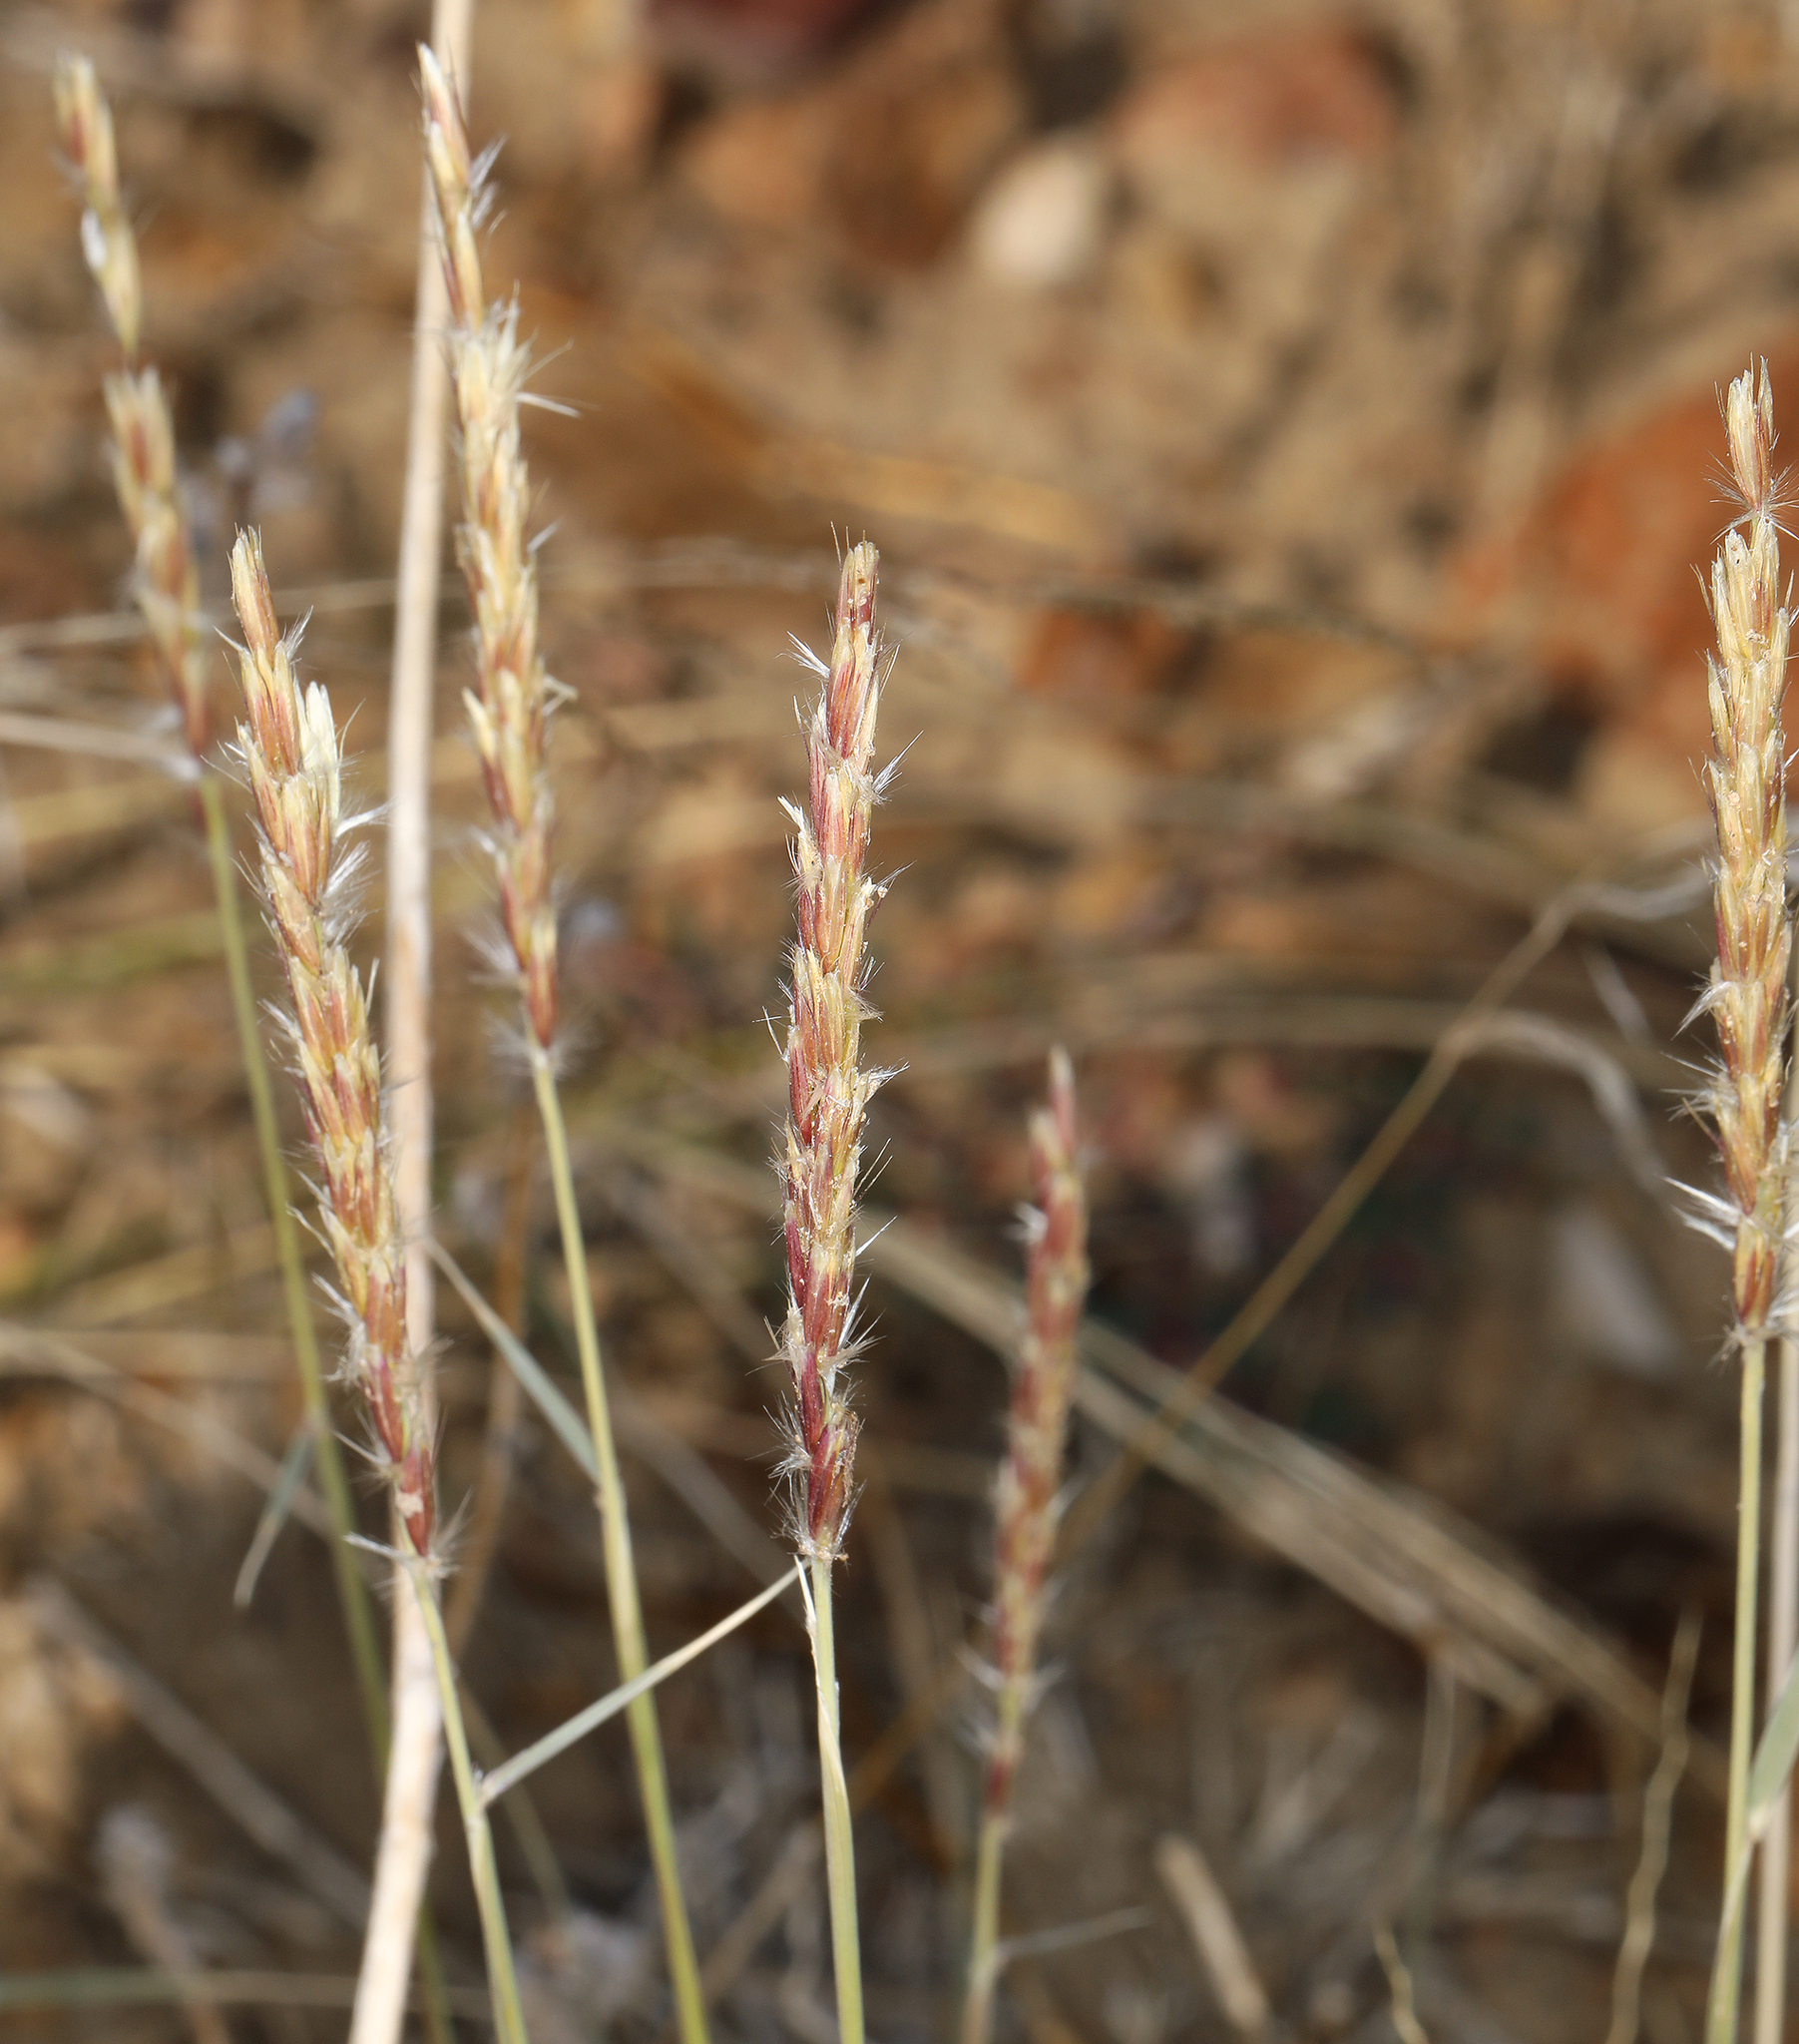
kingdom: Plantae
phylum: Tracheophyta
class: Liliopsida
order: Poales
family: Poaceae
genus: Hilaria
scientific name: Hilaria jamesii
